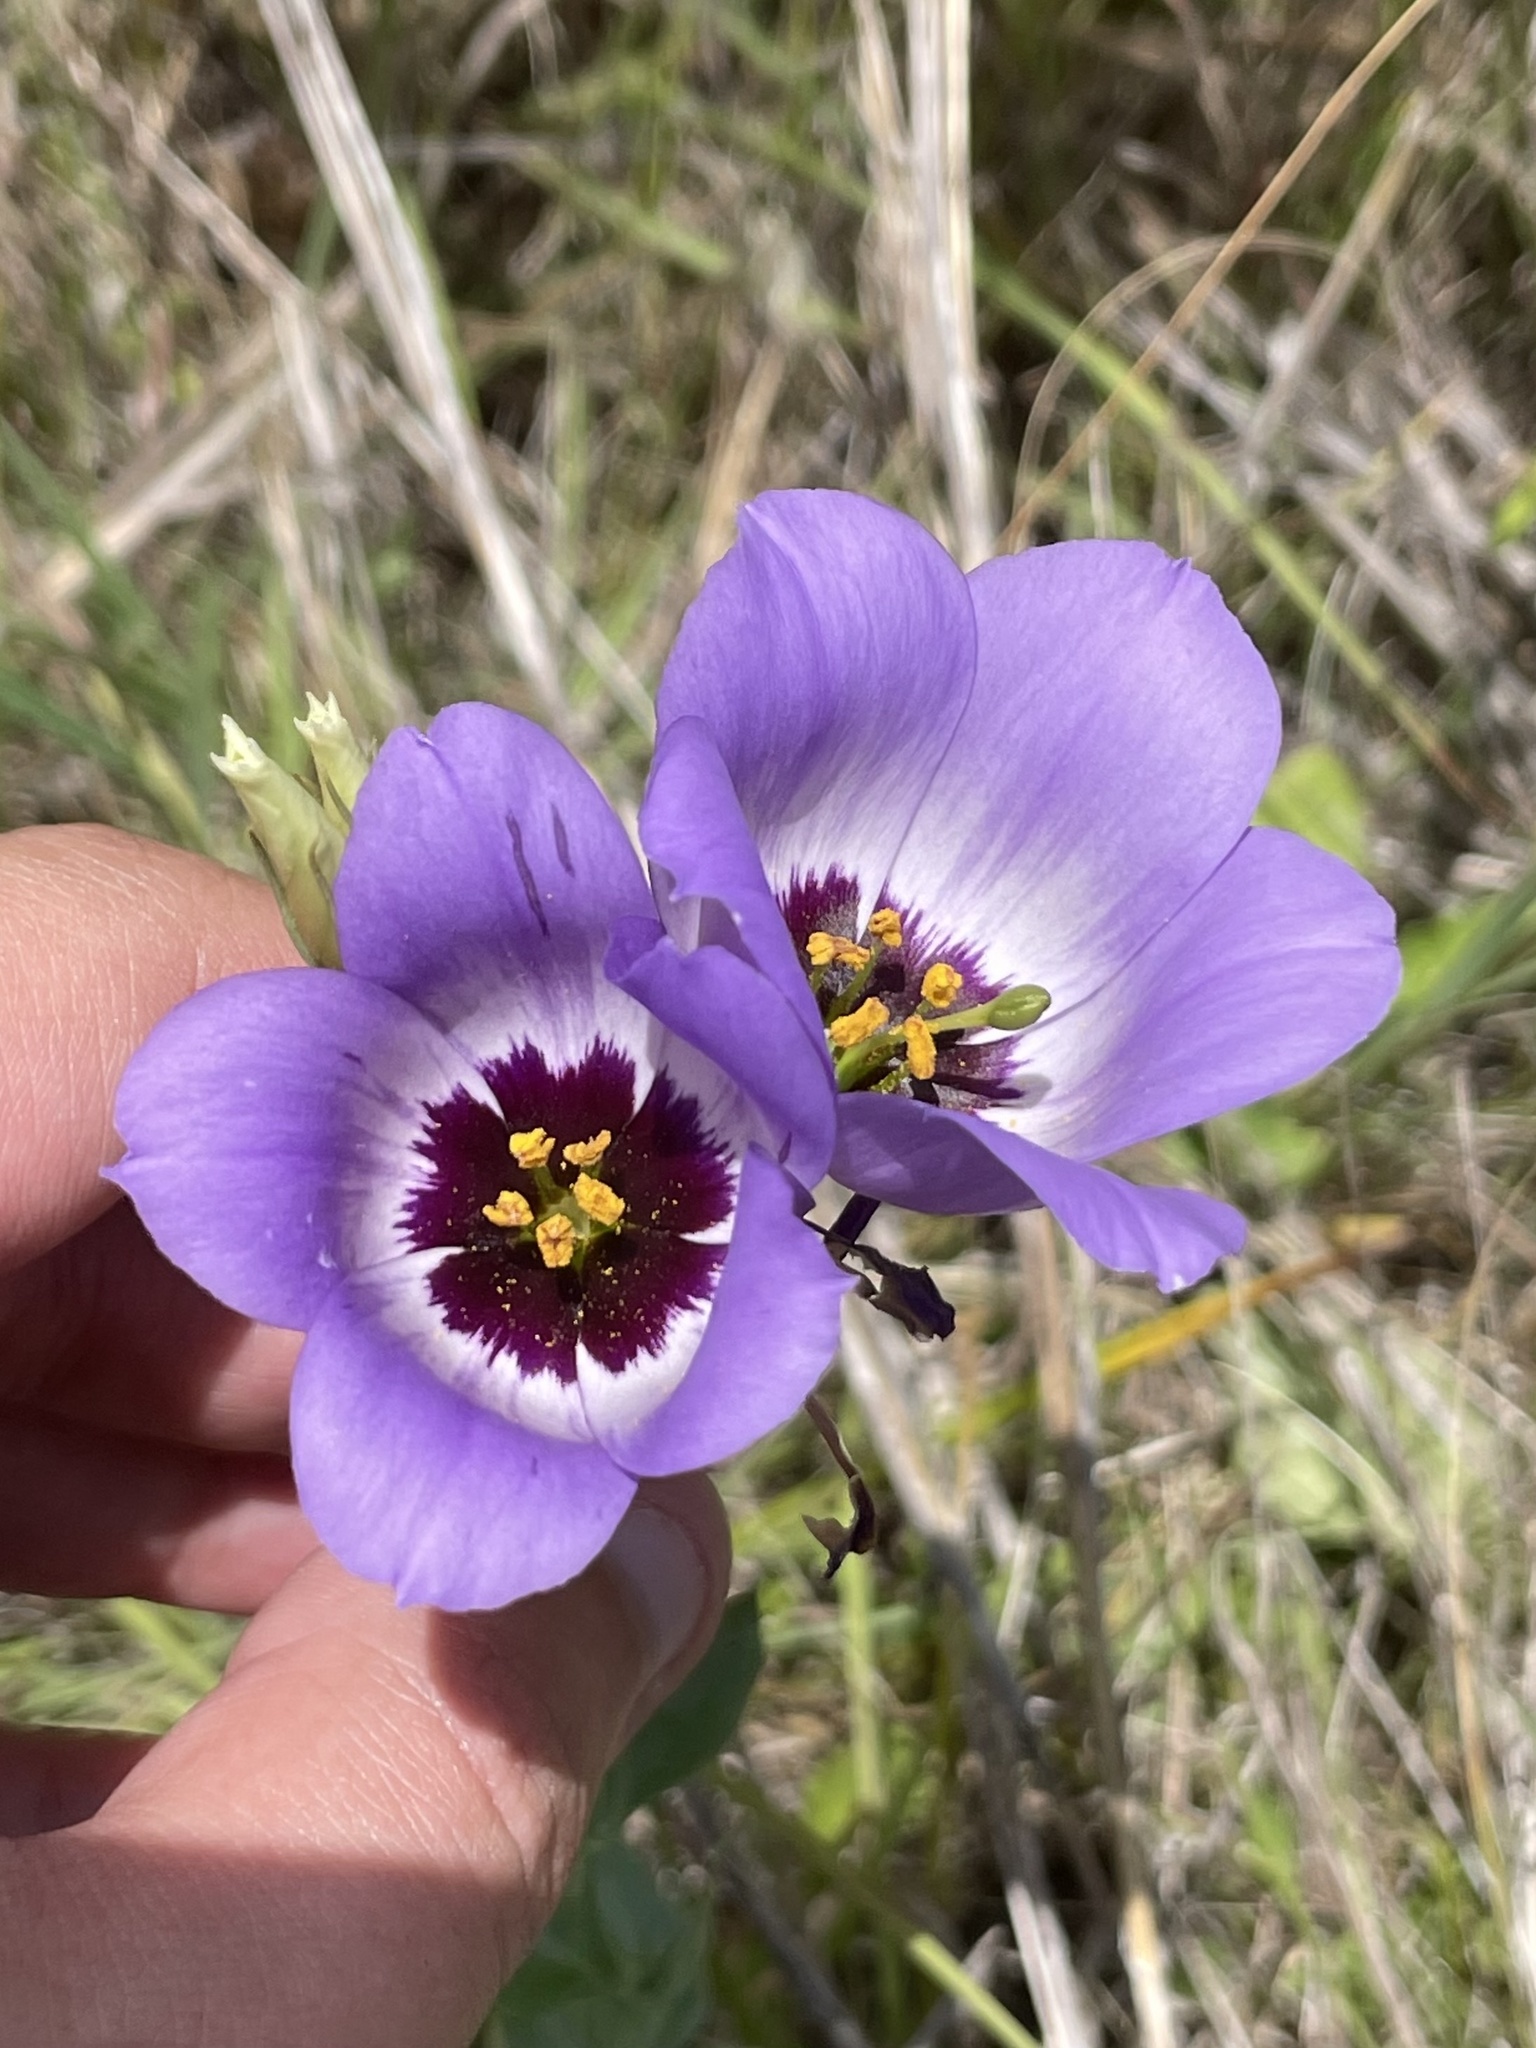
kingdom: Plantae
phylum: Tracheophyta
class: Magnoliopsida
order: Gentianales
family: Gentianaceae
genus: Eustoma
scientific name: Eustoma russellianum
